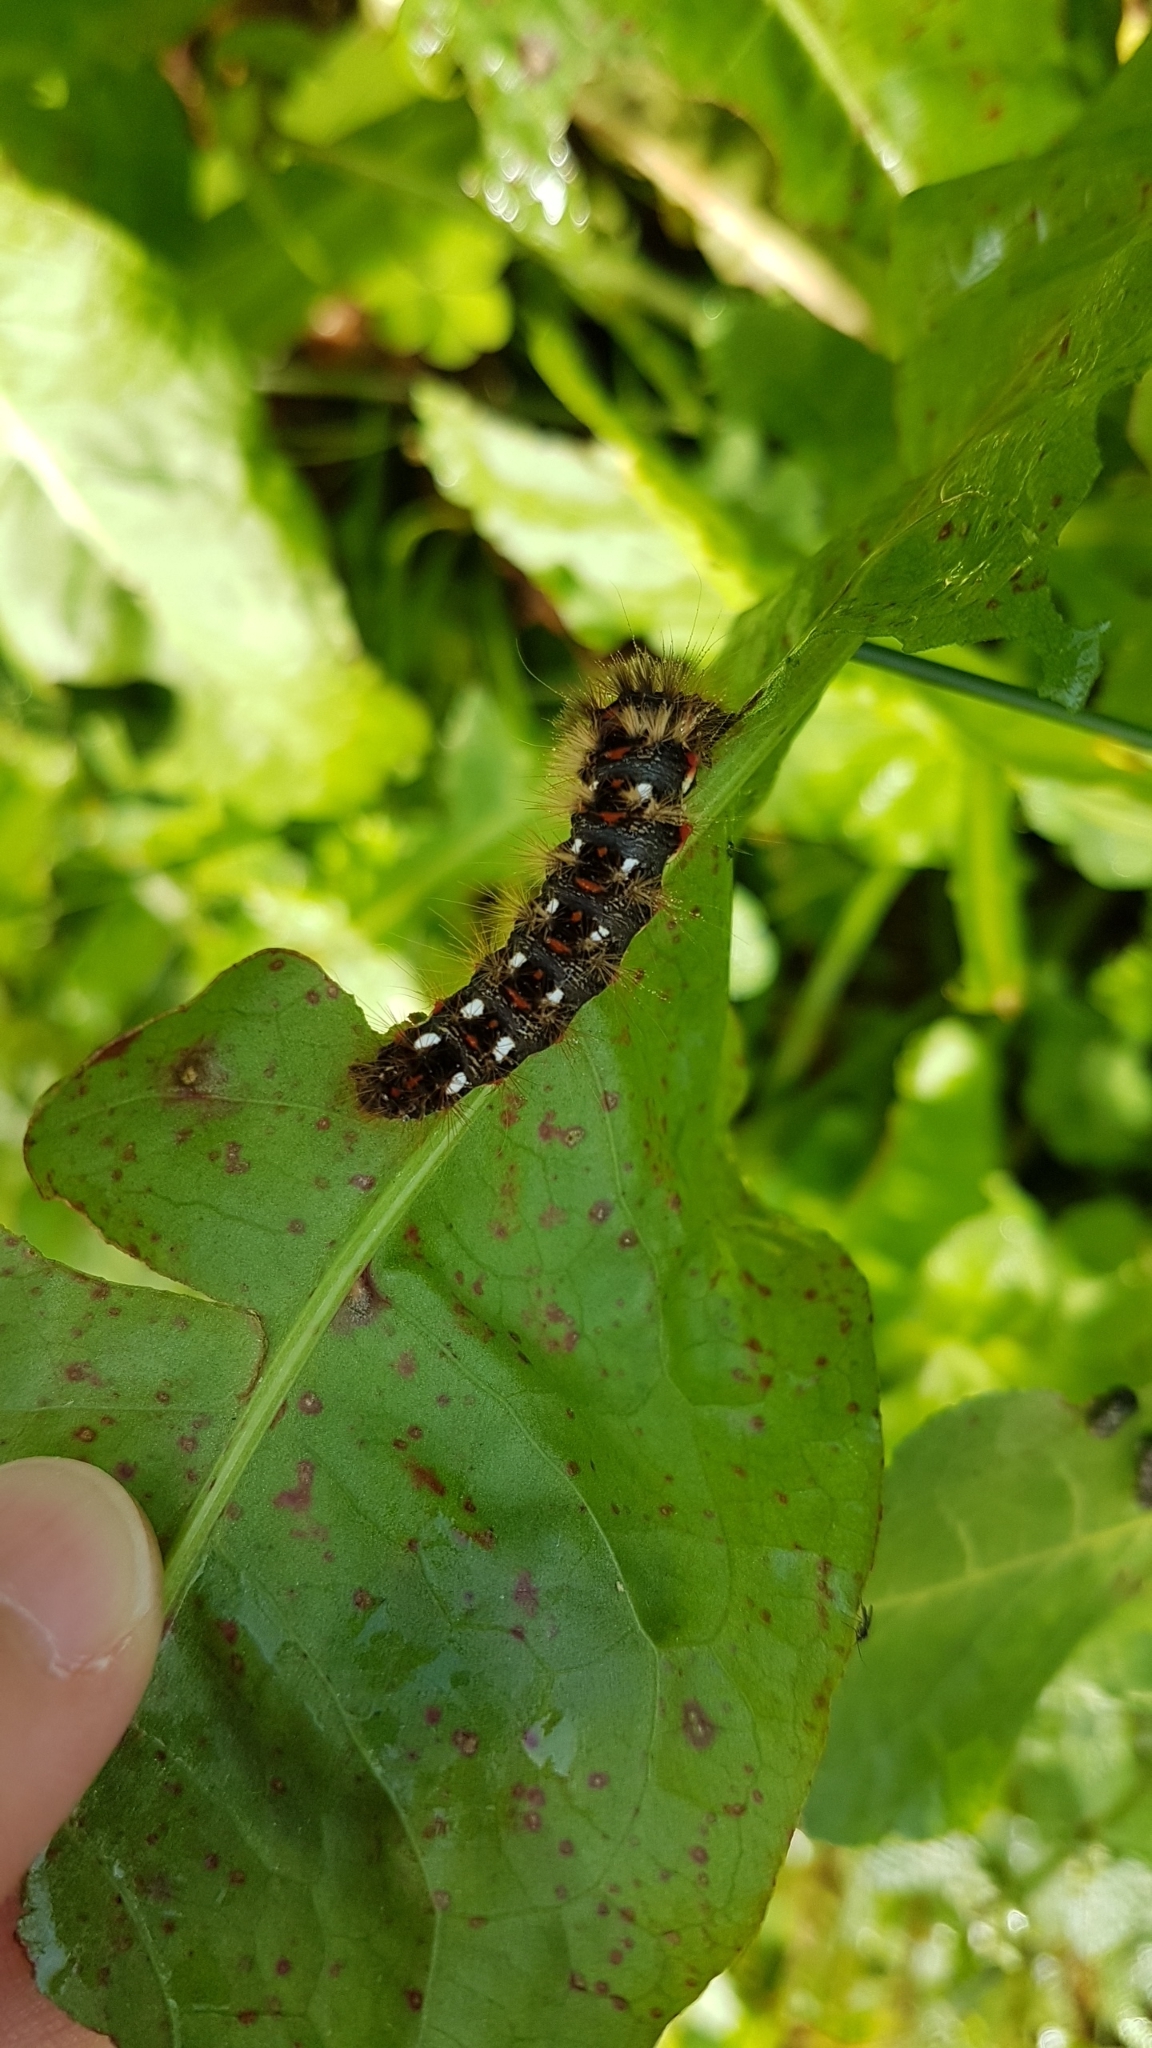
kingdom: Animalia
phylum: Arthropoda
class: Insecta
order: Lepidoptera
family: Noctuidae
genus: Acronicta
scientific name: Acronicta rumicis
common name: Knot grass
